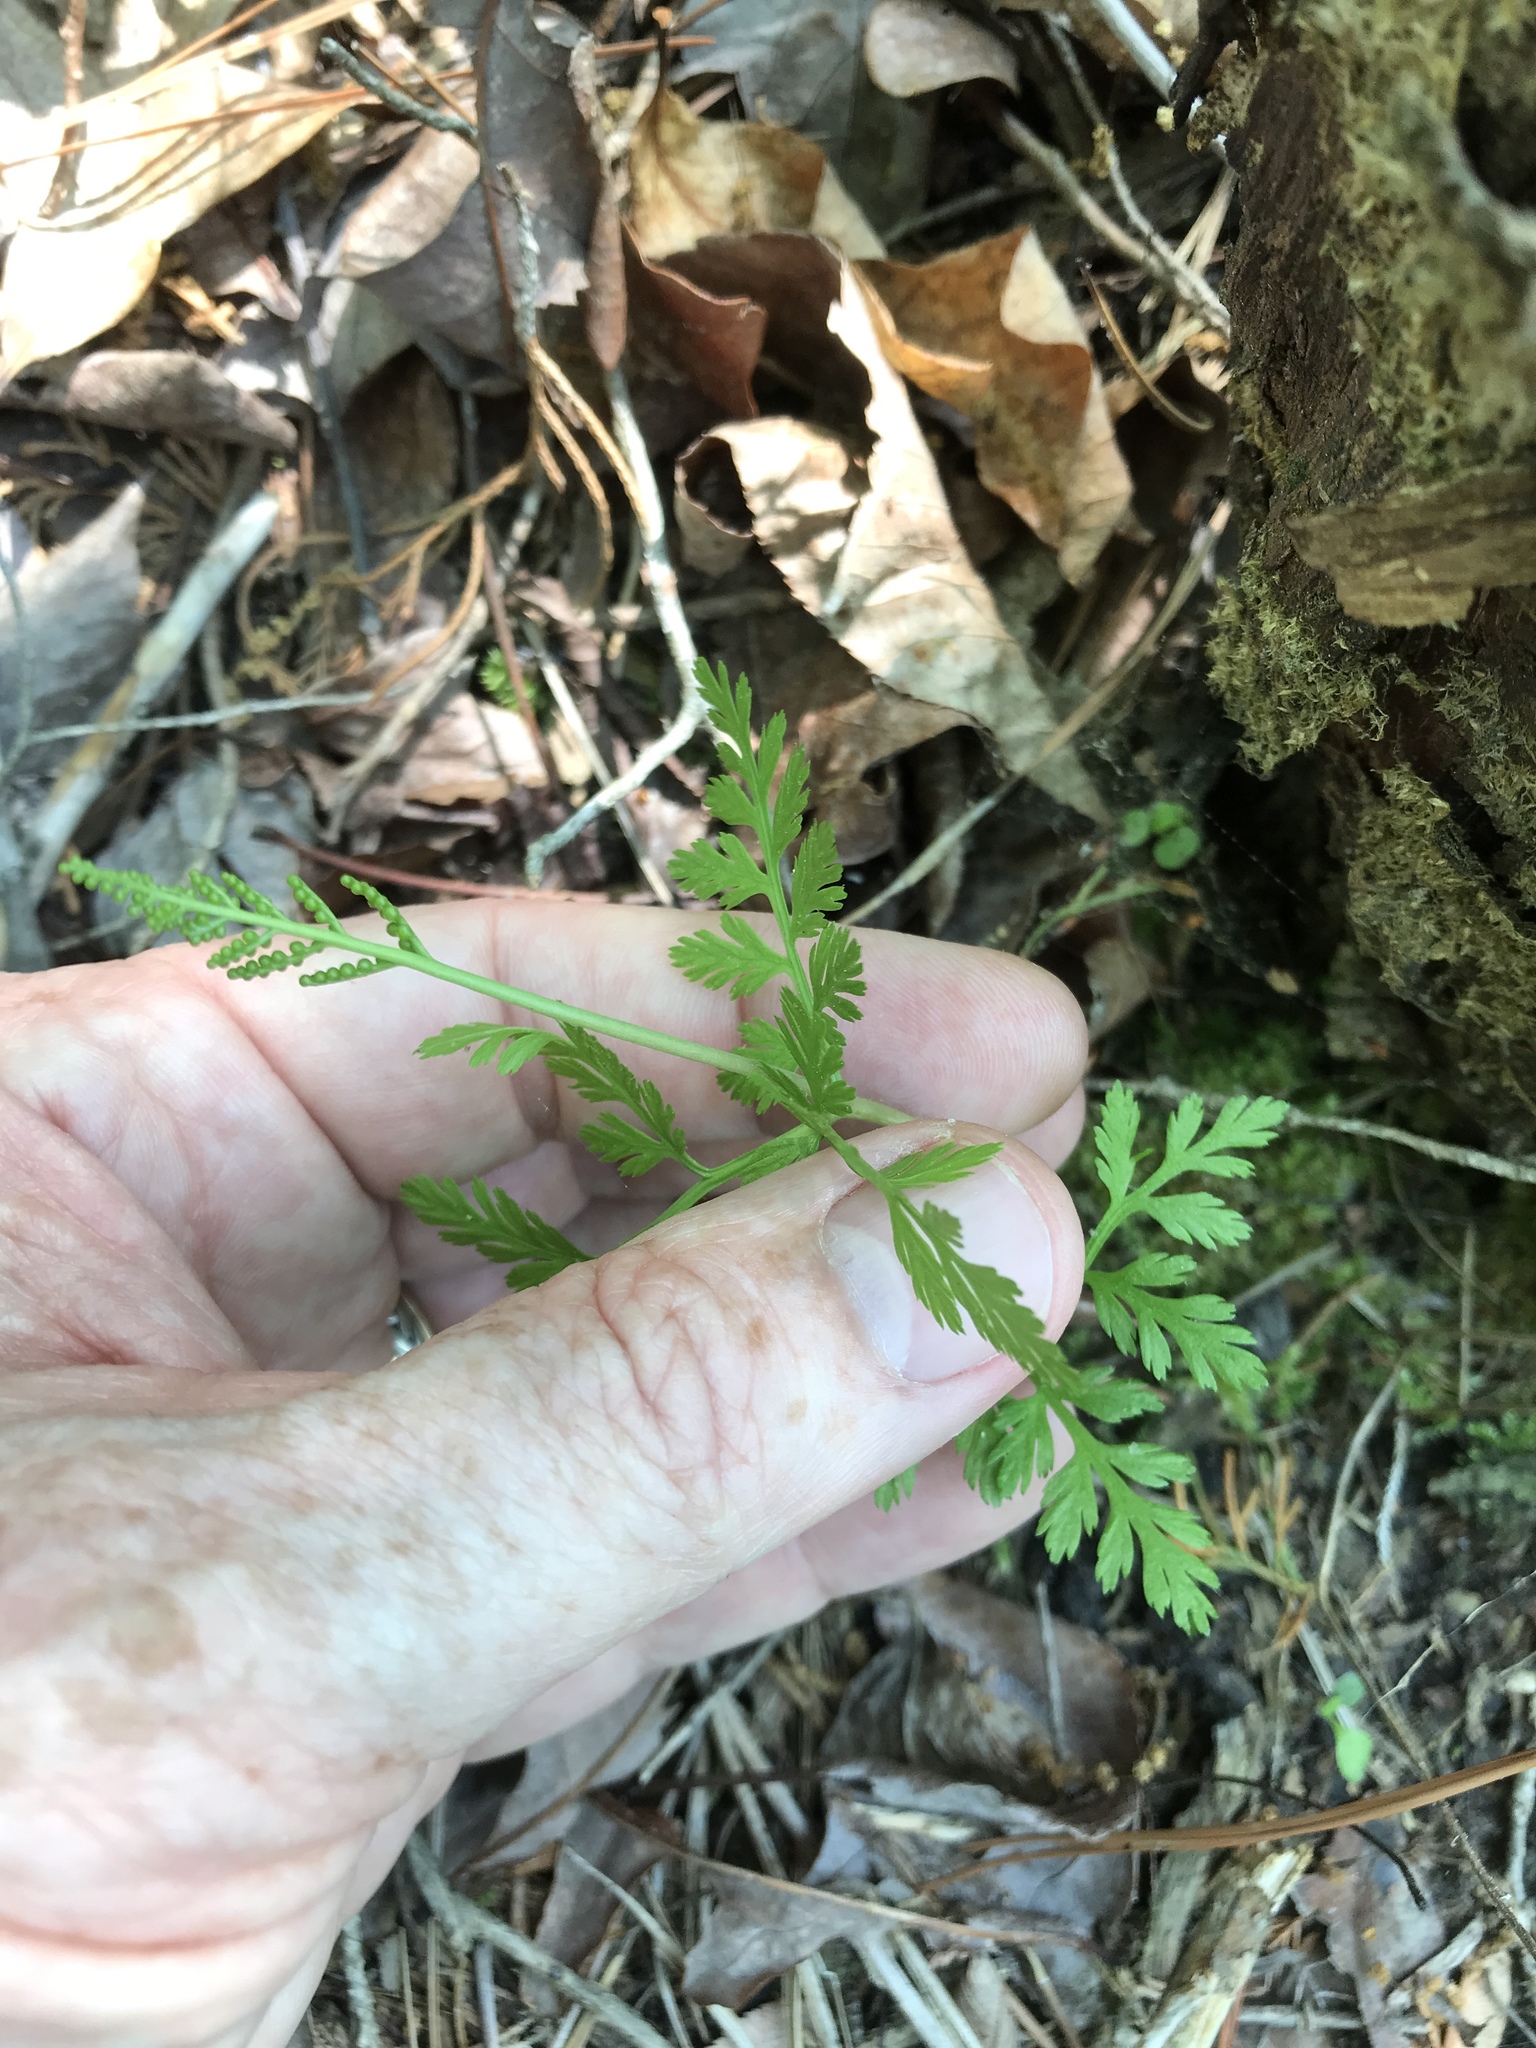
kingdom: Plantae
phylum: Tracheophyta
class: Polypodiopsida
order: Ophioglossales
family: Ophioglossaceae
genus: Botrypus
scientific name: Botrypus virginianus
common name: Common grapefern
